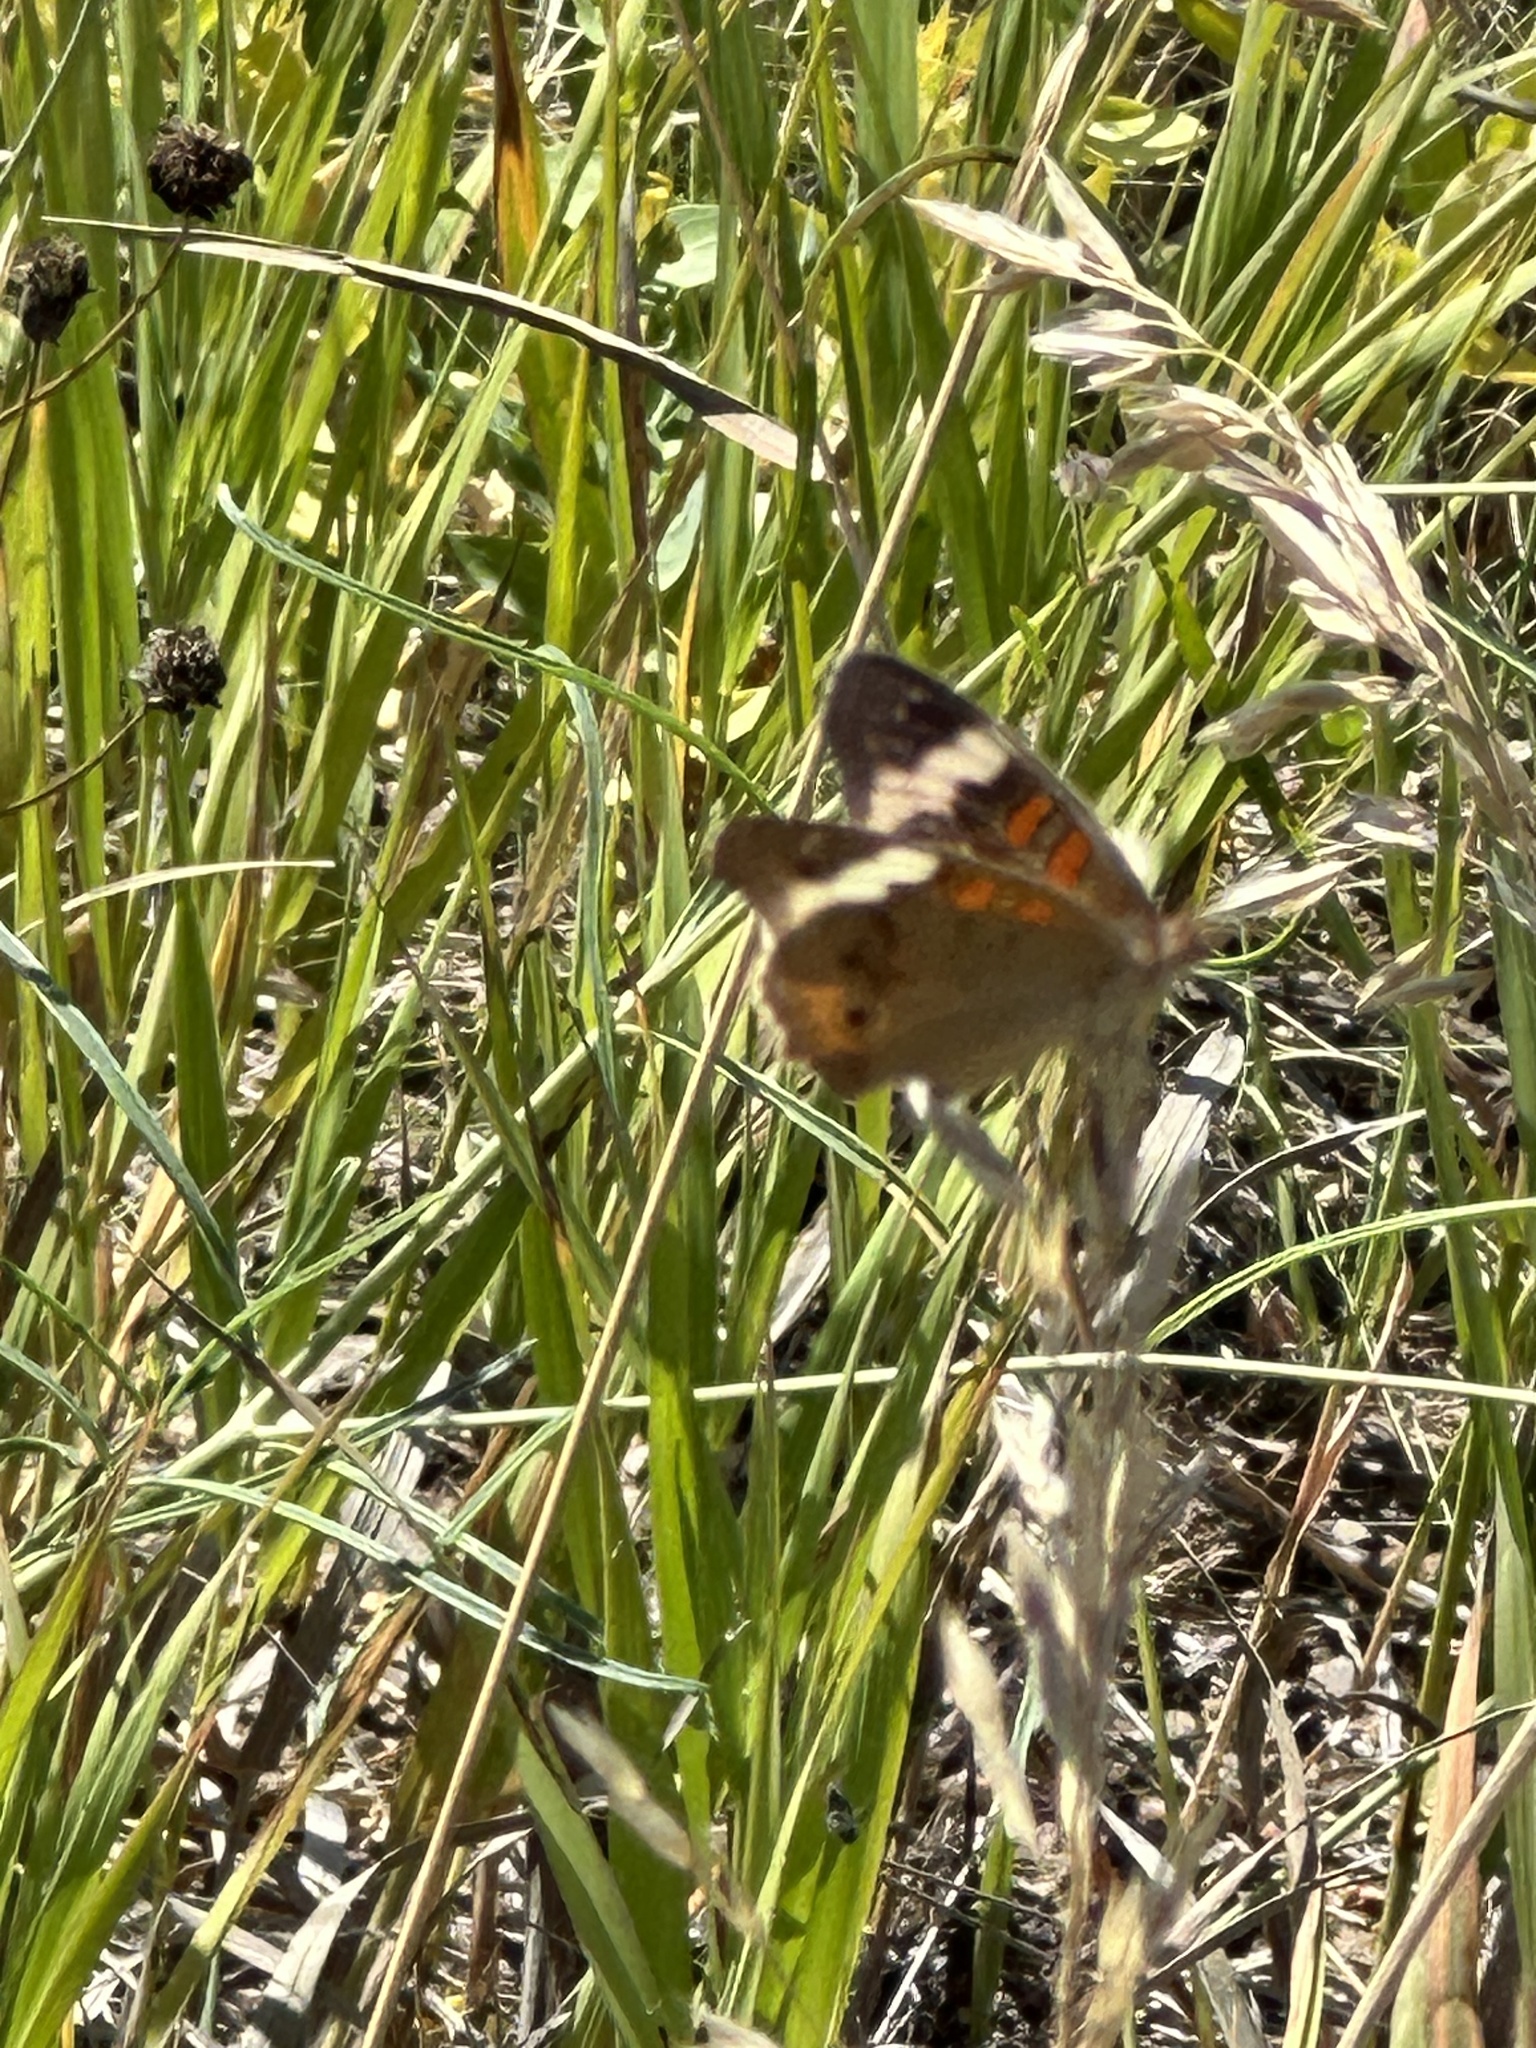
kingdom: Animalia
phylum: Arthropoda
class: Insecta
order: Lepidoptera
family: Nymphalidae
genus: Junonia
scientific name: Junonia coenia
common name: Common buckeye
